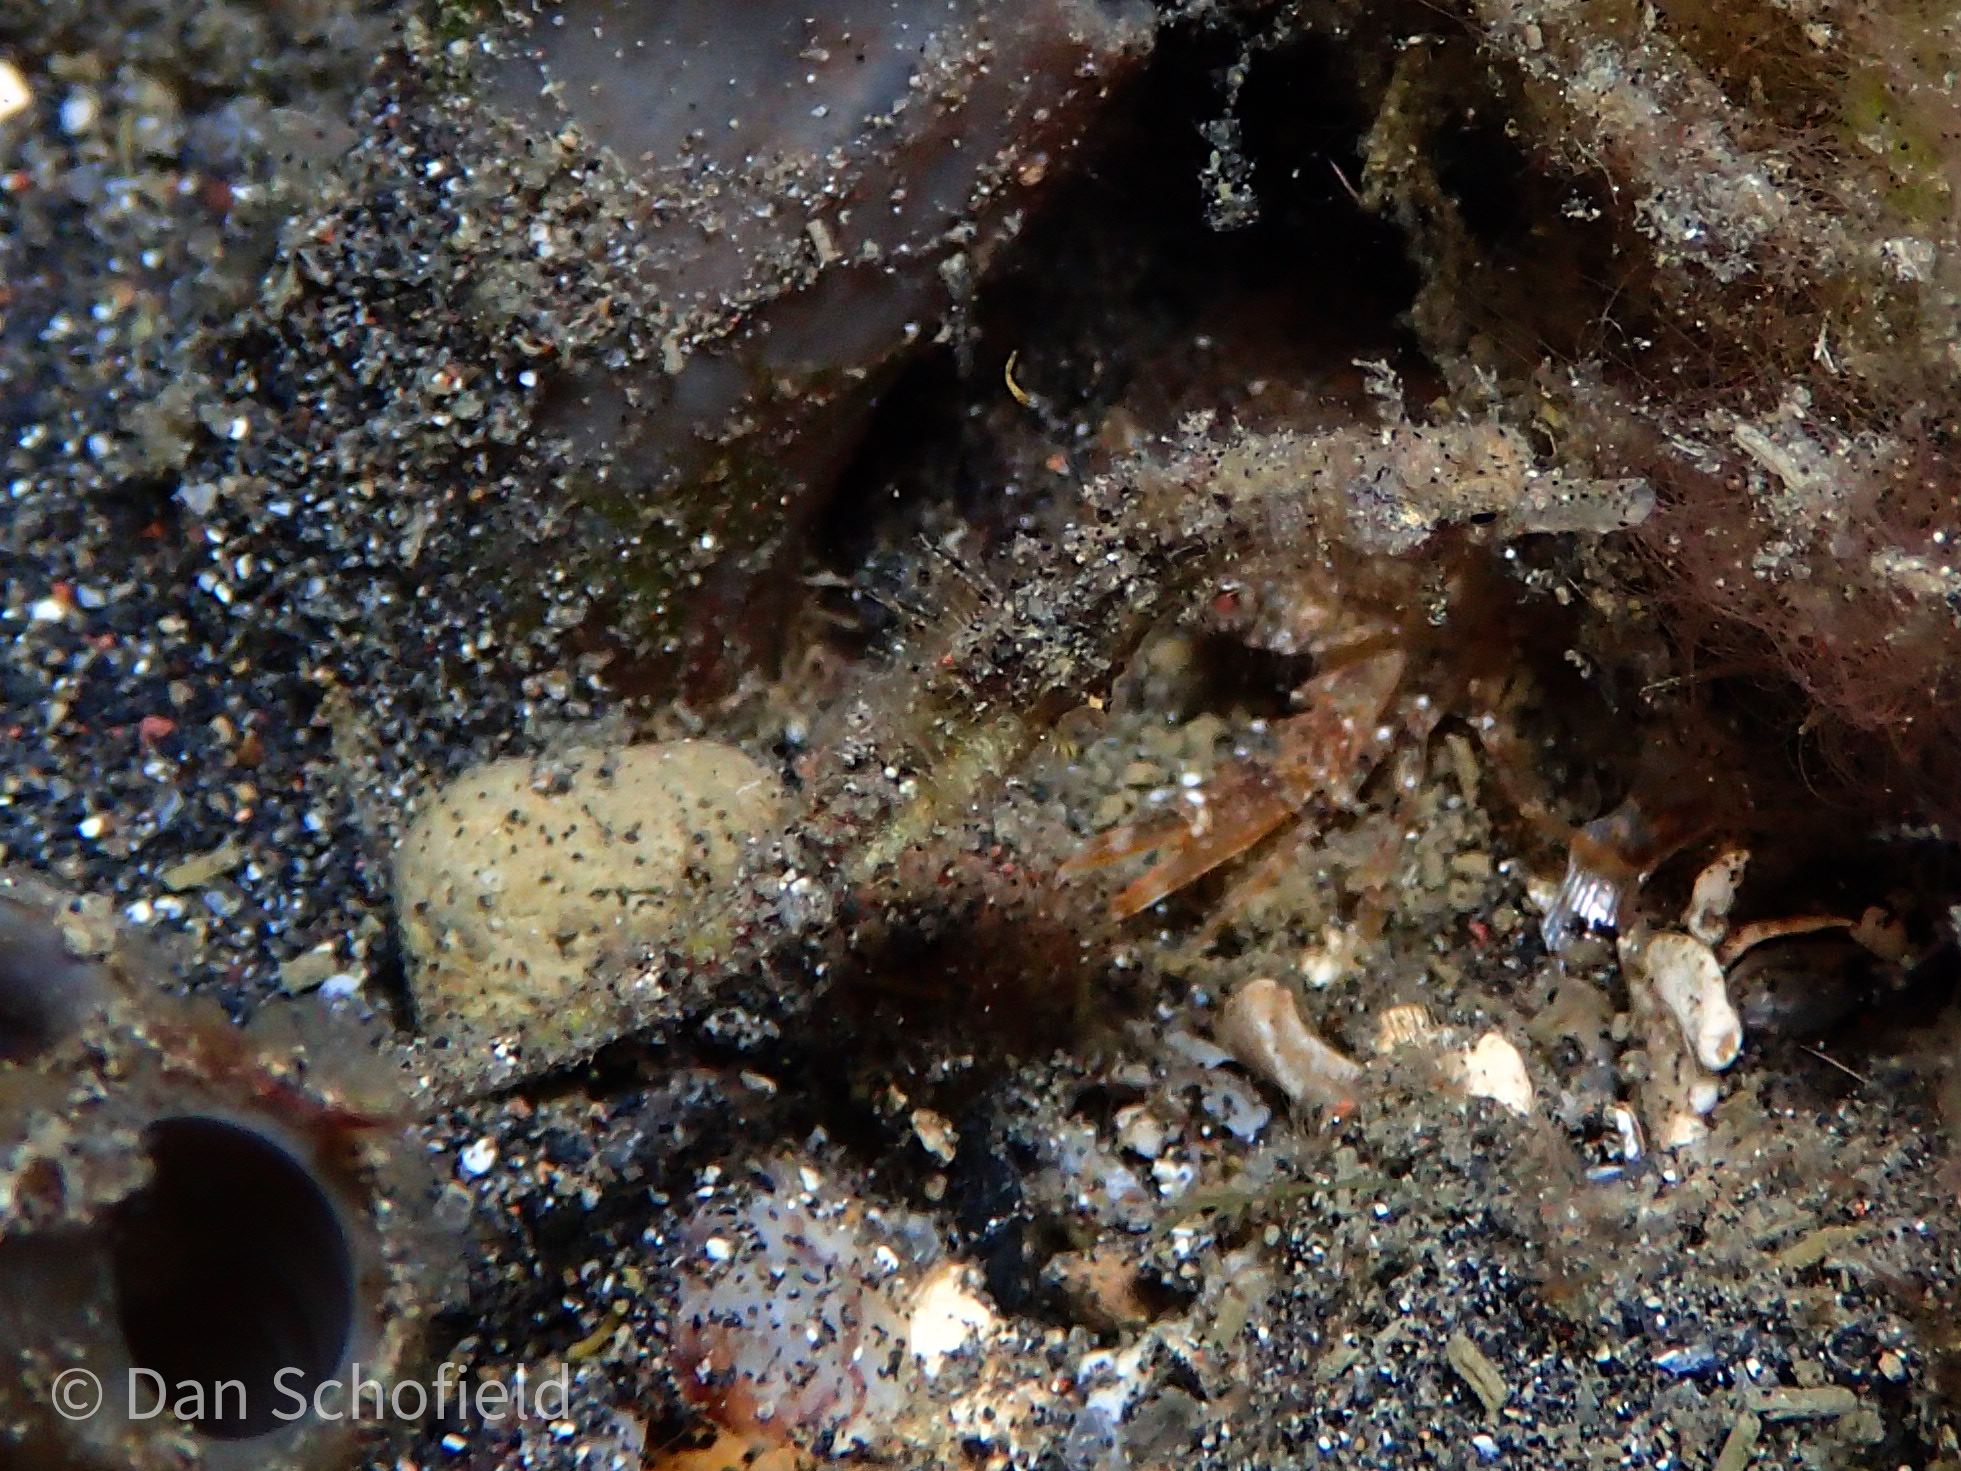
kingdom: Animalia
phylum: Chordata
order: Syngnathiformes
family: Syngnathidae
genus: Acentronura
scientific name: Acentronura breviperula
